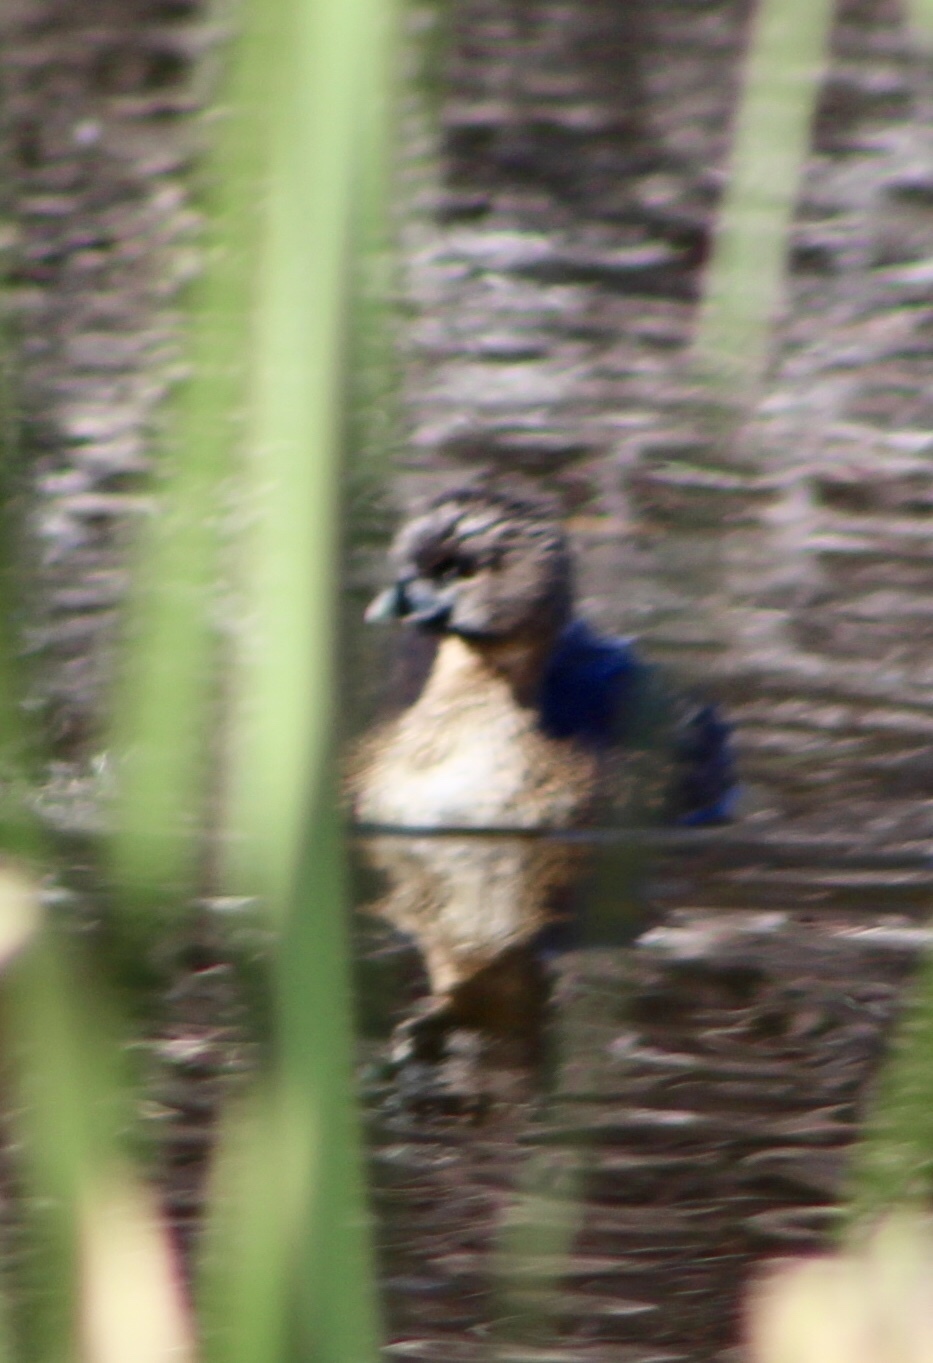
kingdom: Animalia
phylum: Chordata
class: Aves
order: Podicipediformes
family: Podicipedidae
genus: Podilymbus
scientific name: Podilymbus podiceps
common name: Pied-billed grebe
